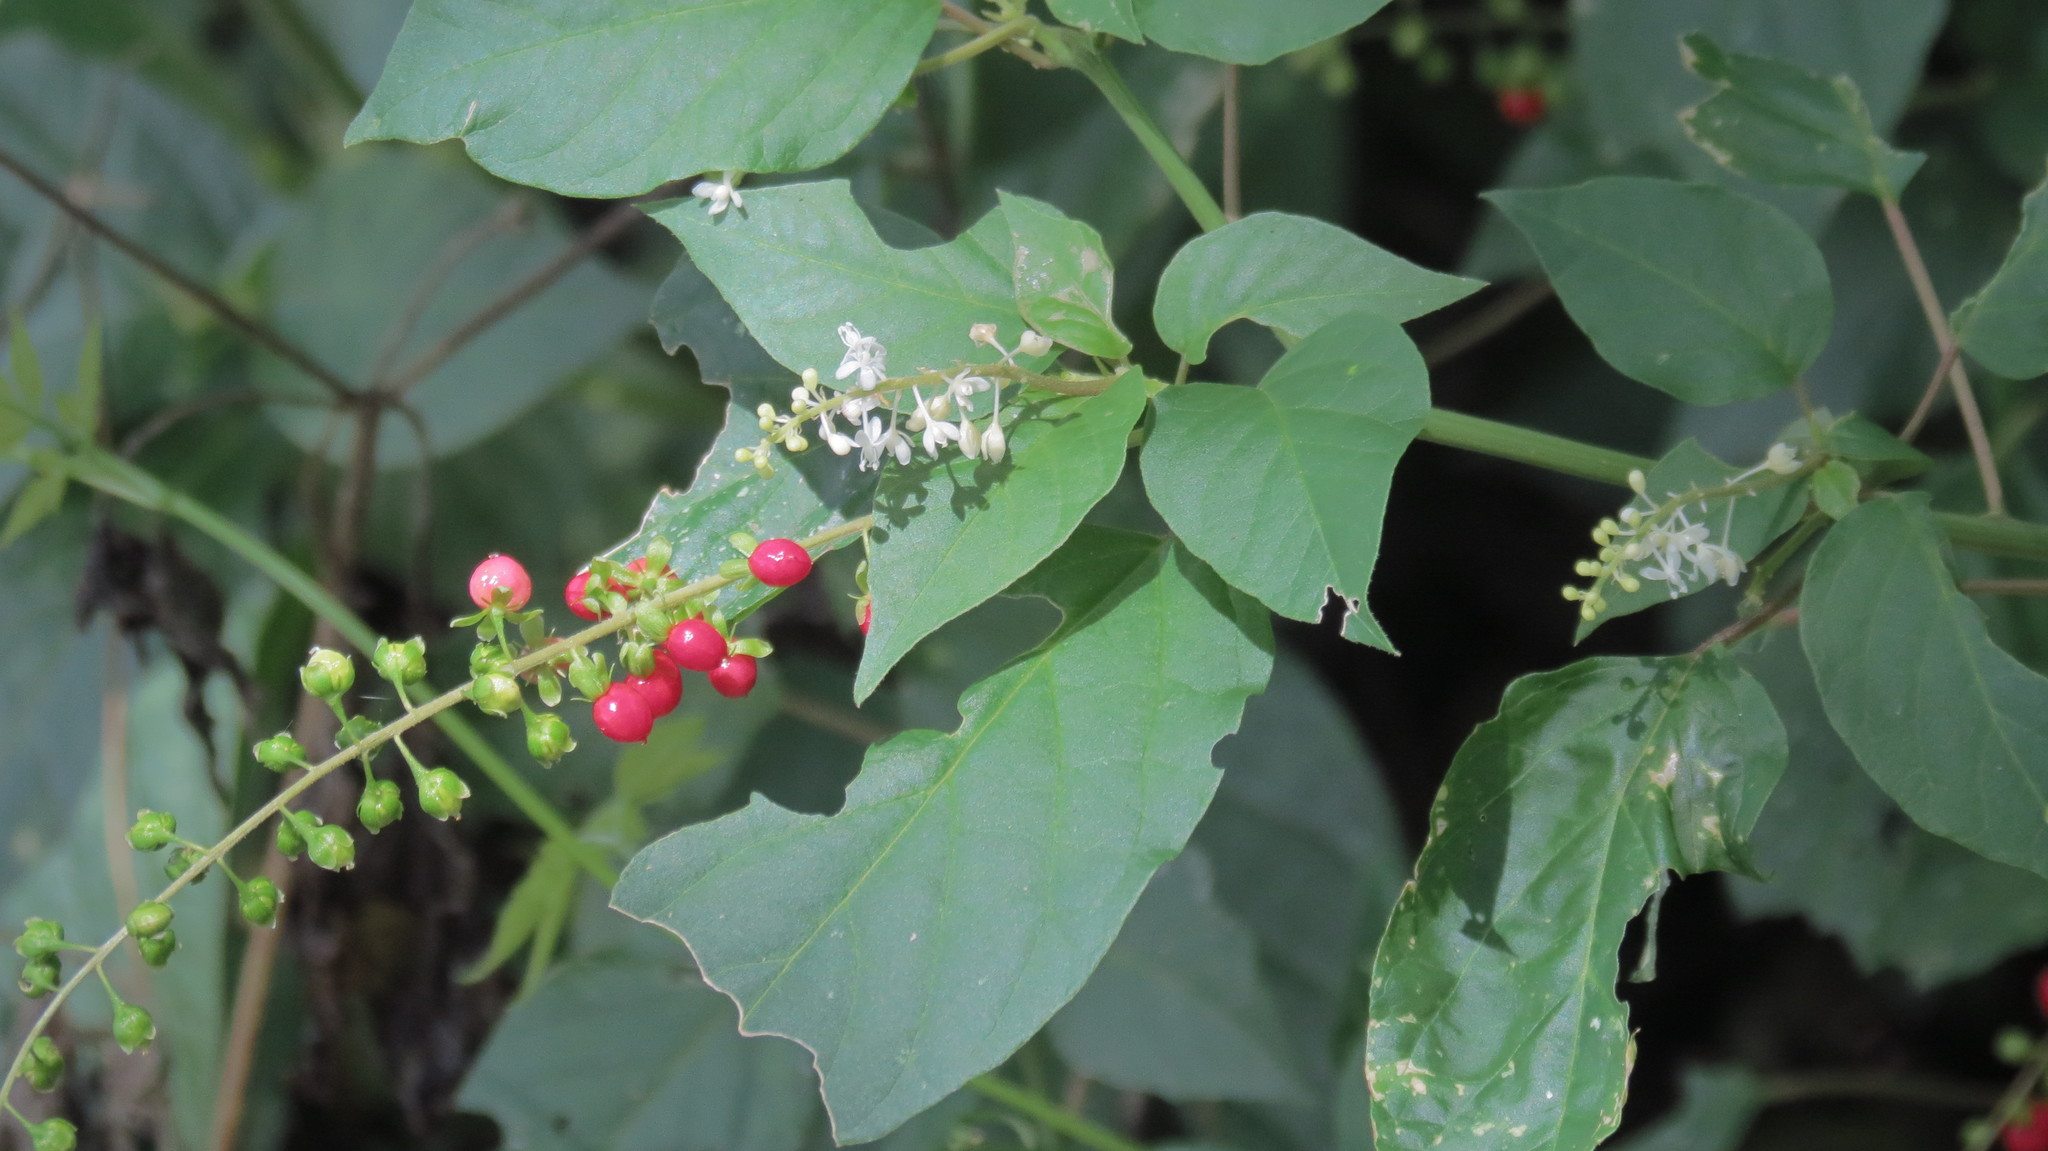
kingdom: Plantae
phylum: Tracheophyta
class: Magnoliopsida
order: Caryophyllales
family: Phytolaccaceae
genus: Rivina
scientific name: Rivina humilis
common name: Rougeplant
